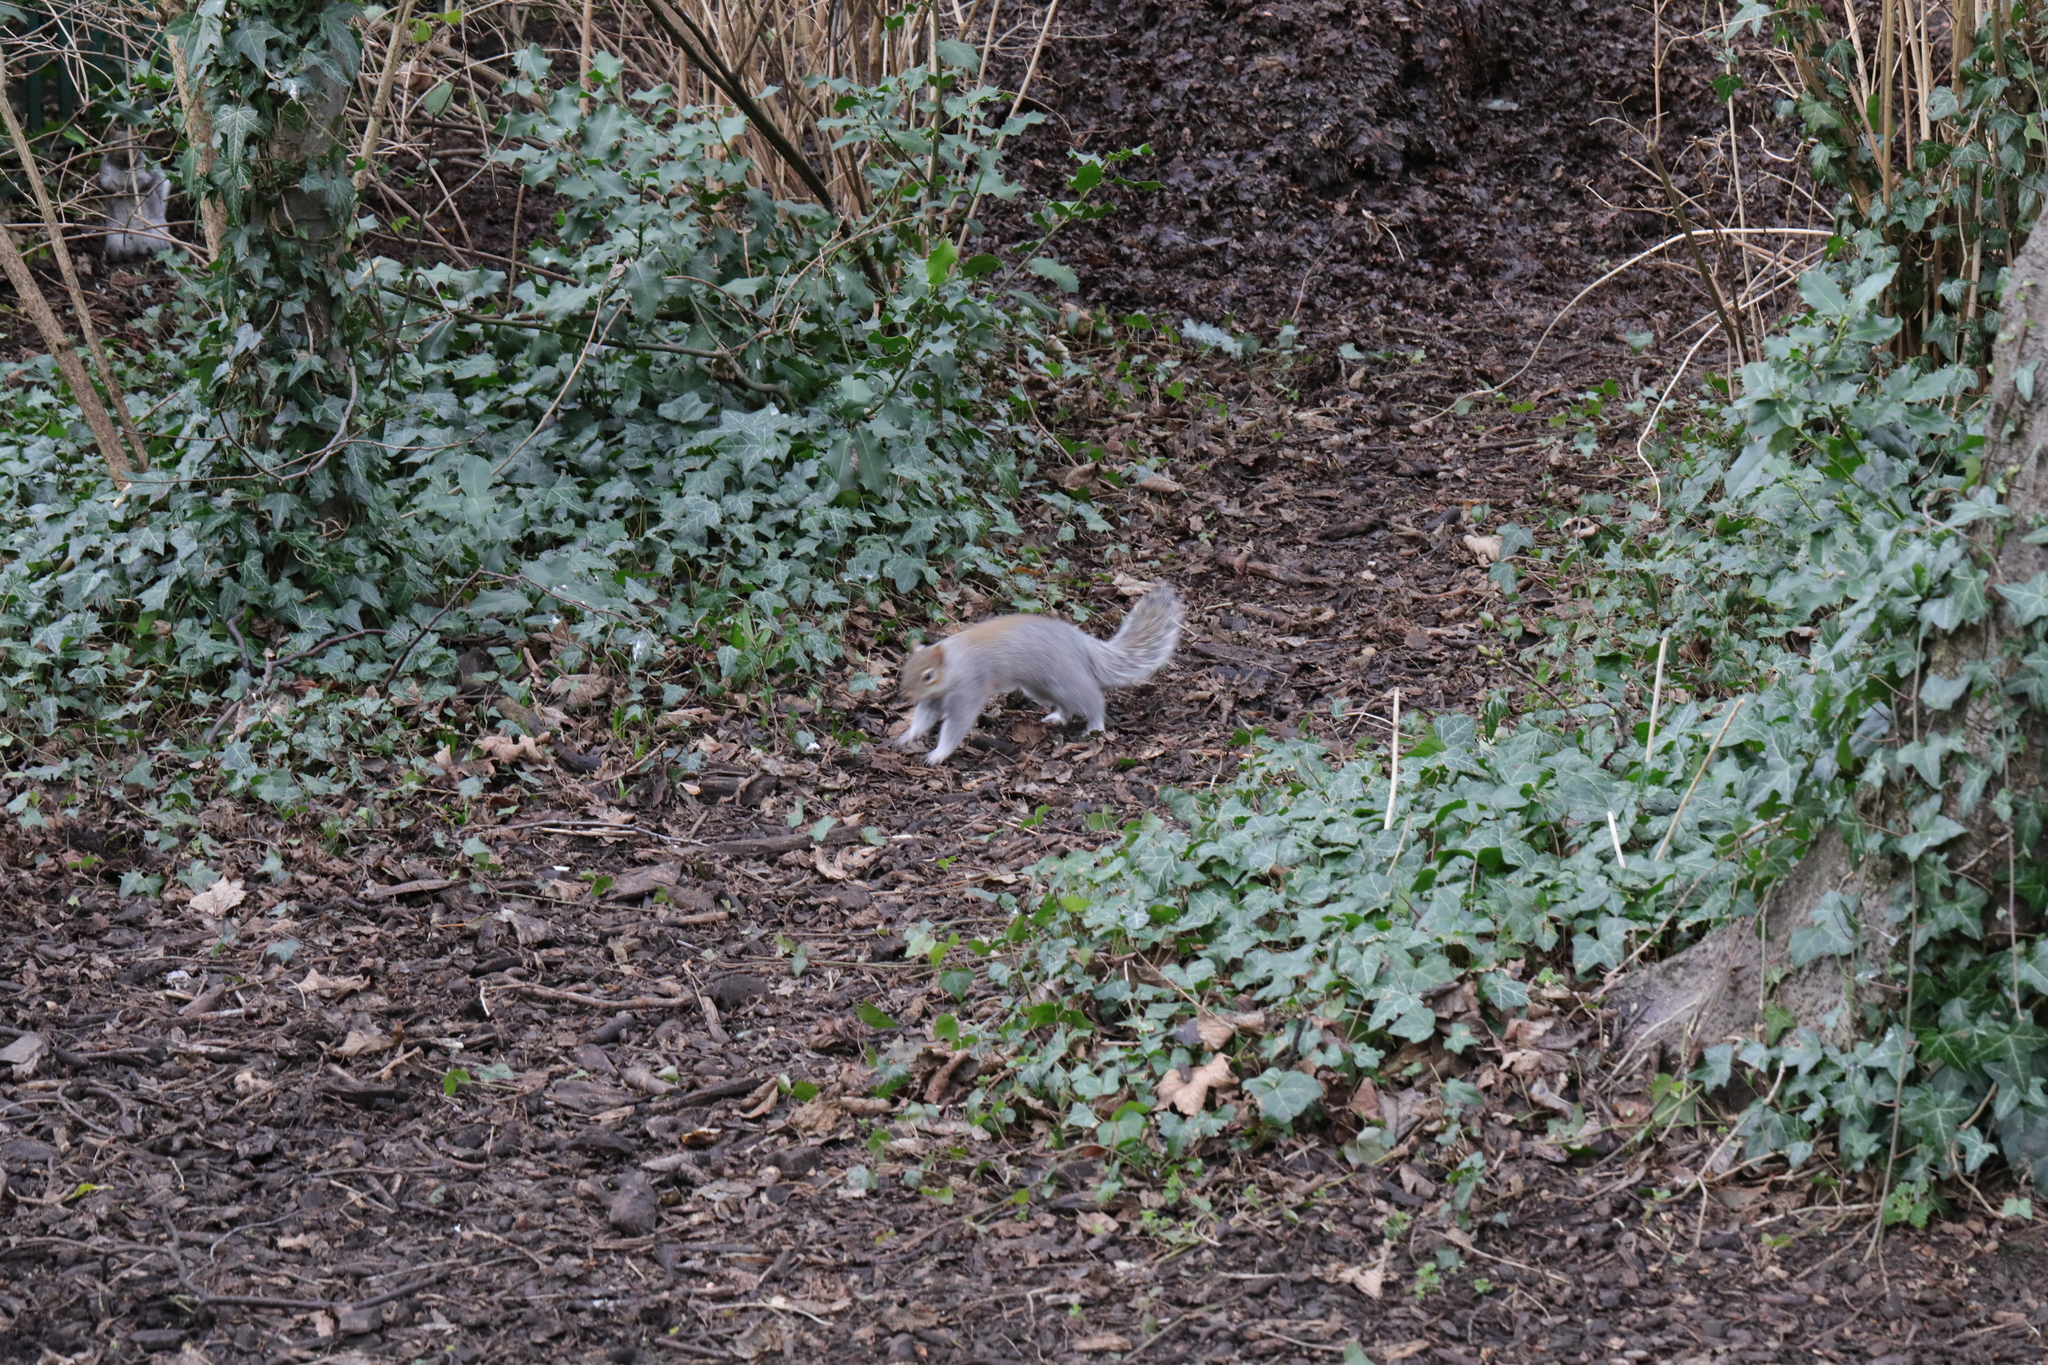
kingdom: Animalia
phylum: Chordata
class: Mammalia
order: Rodentia
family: Sciuridae
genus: Sciurus
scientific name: Sciurus carolinensis
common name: Eastern gray squirrel
